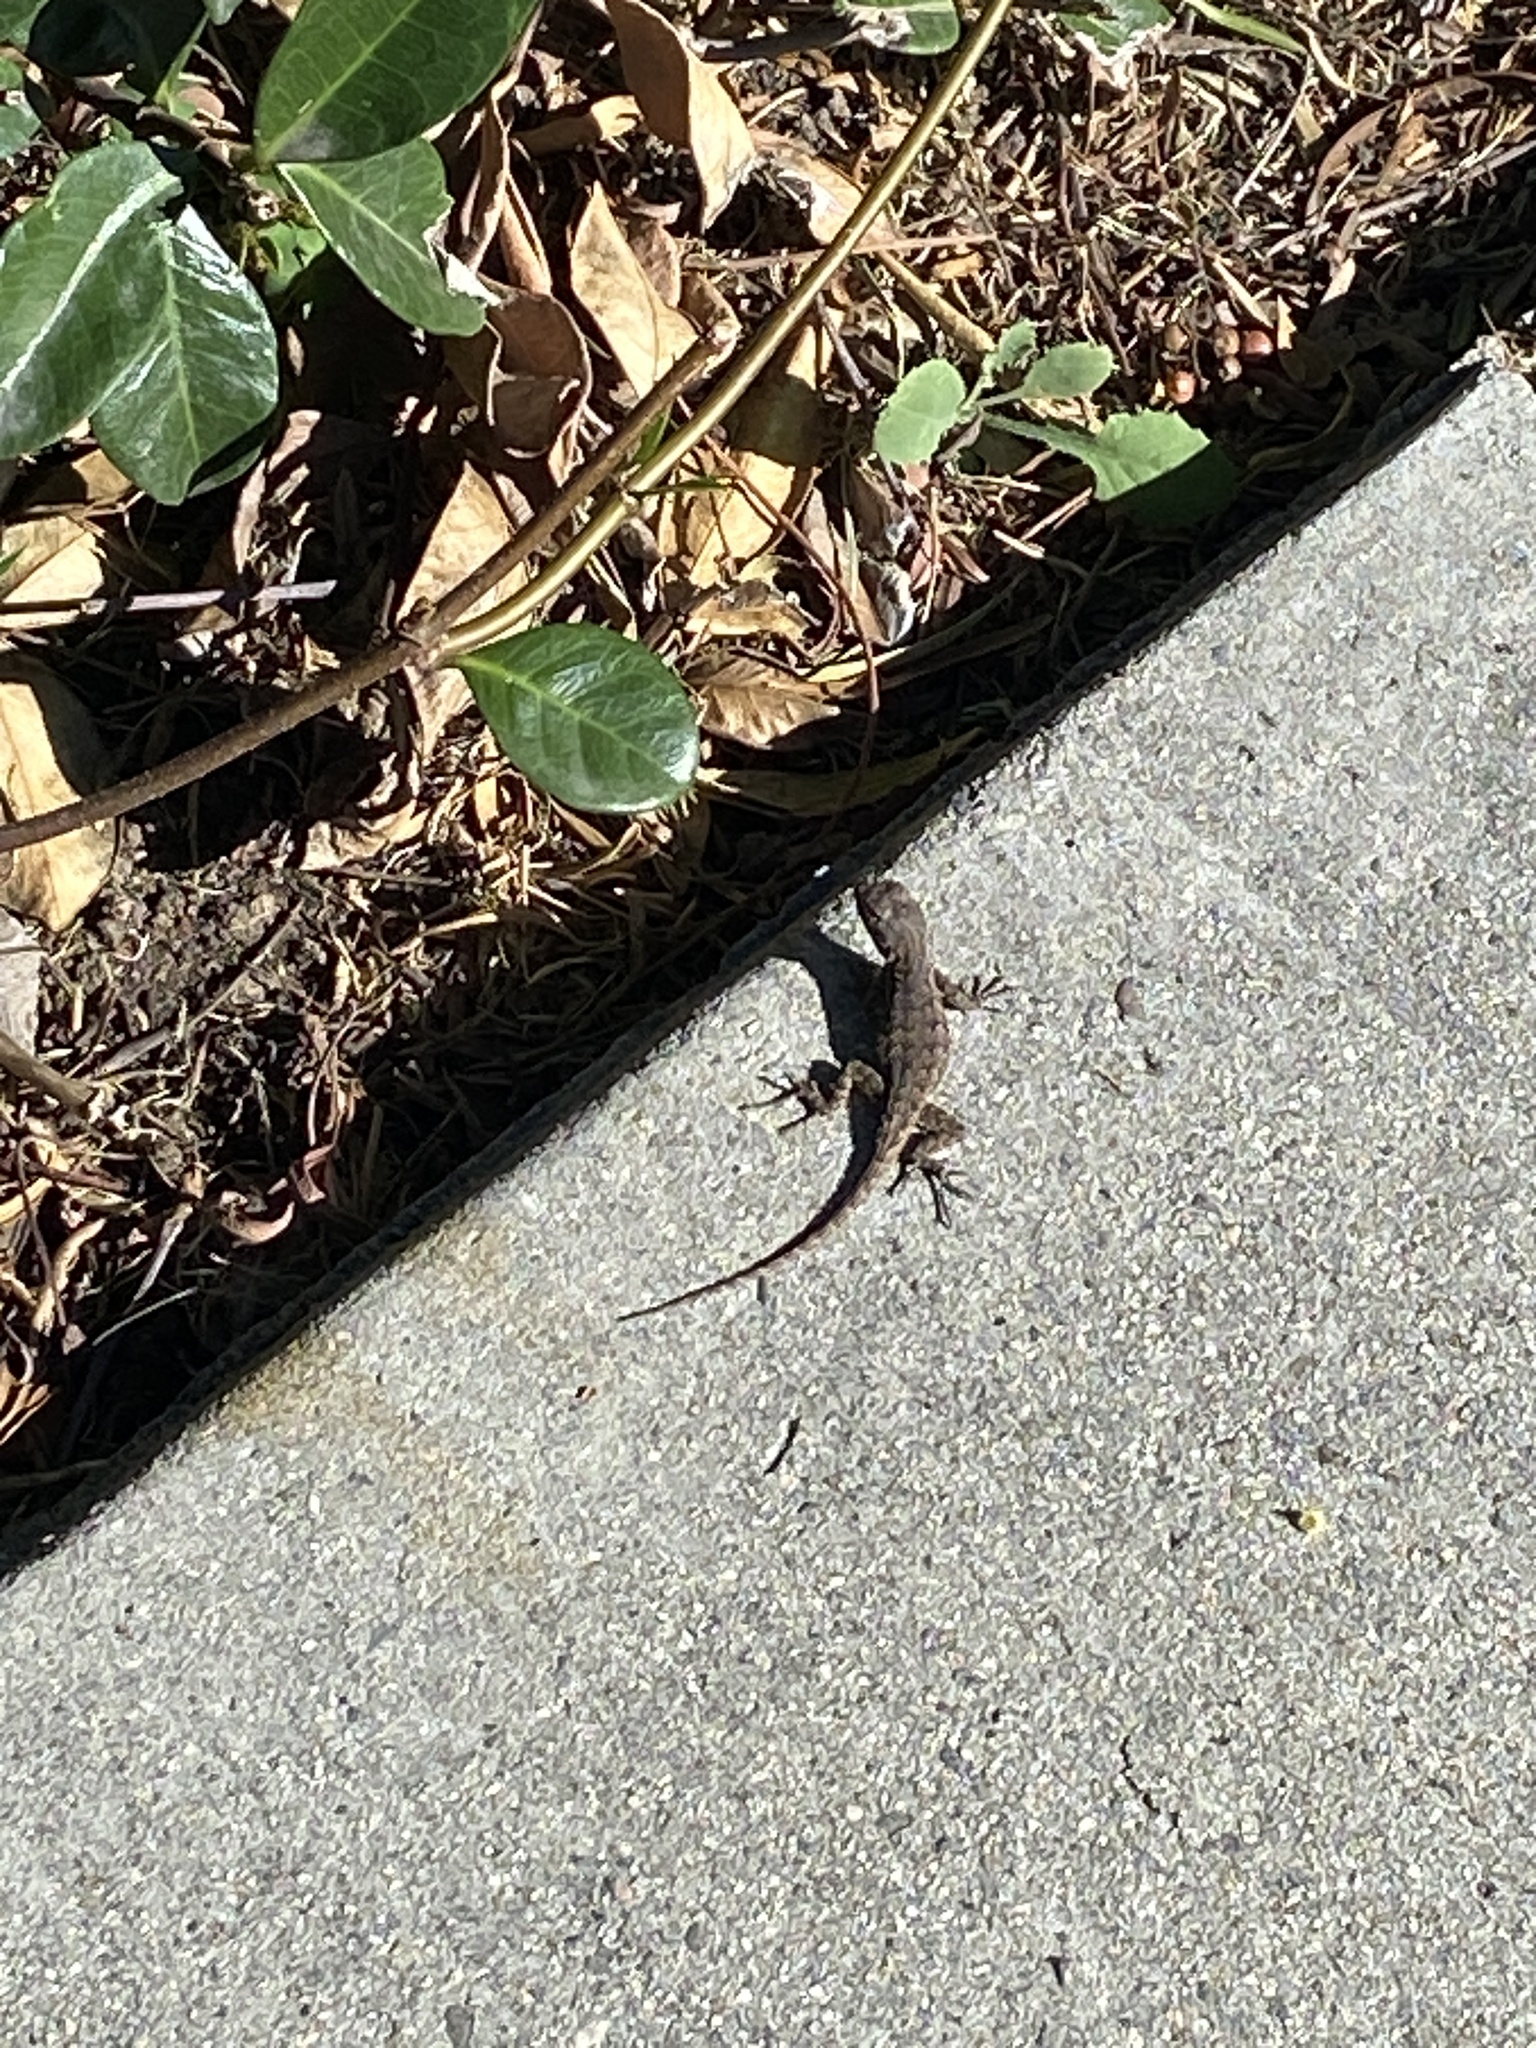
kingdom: Animalia
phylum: Chordata
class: Squamata
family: Phrynosomatidae
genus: Sceloporus
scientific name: Sceloporus occidentalis
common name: Western fence lizard
